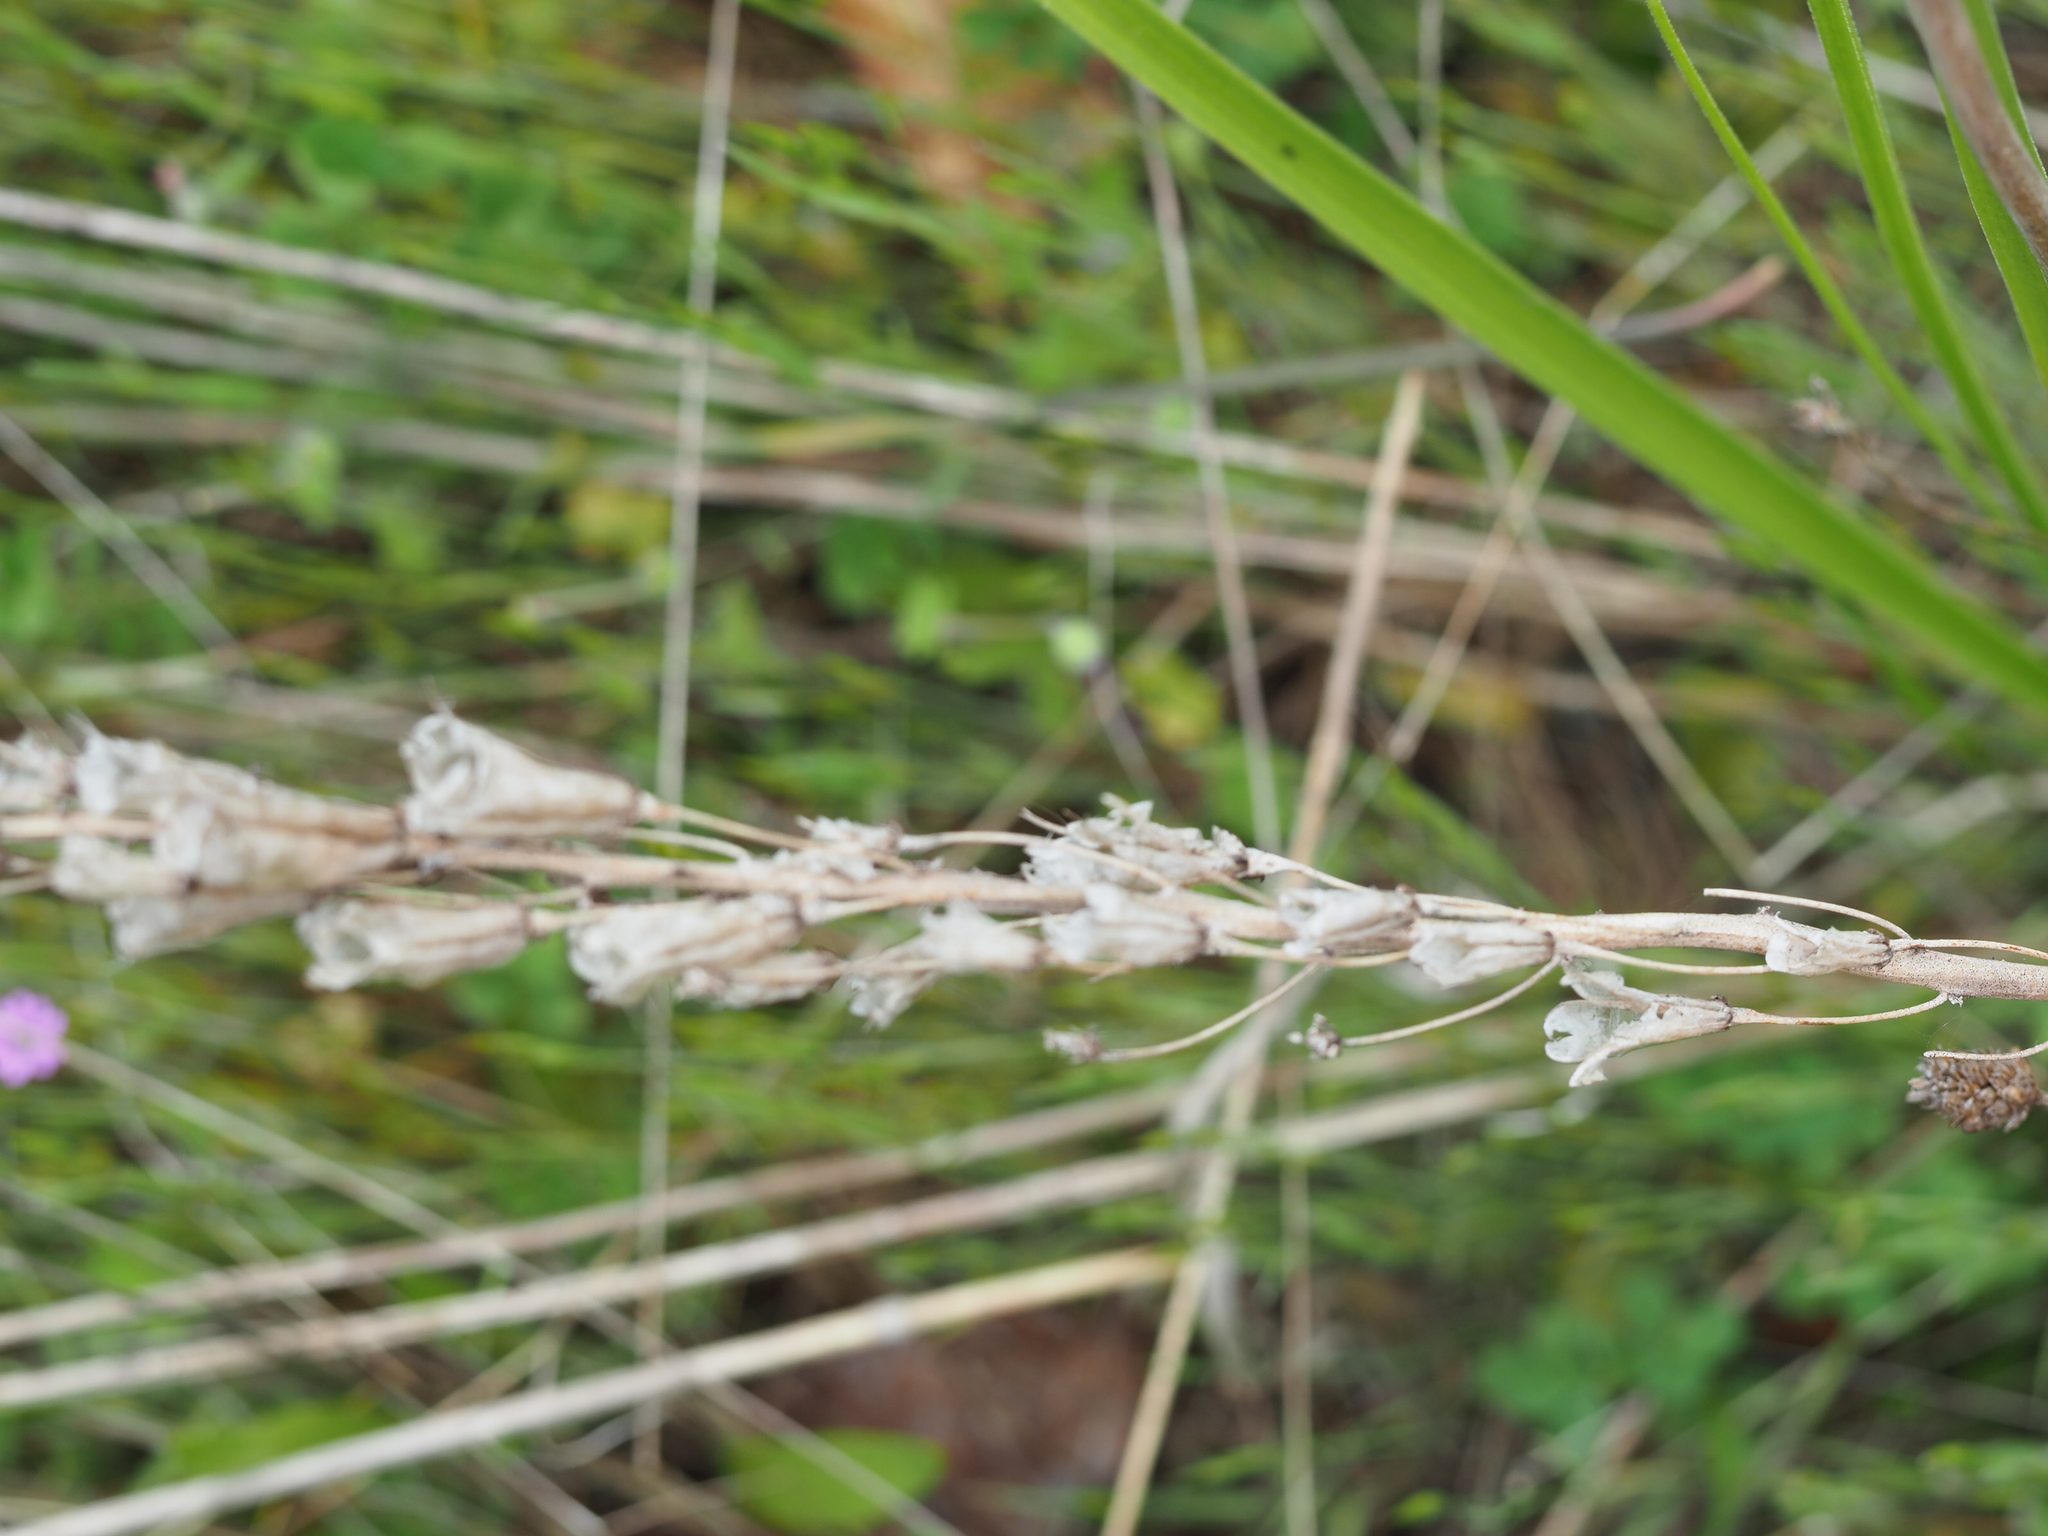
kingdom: Plantae
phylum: Tracheophyta
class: Liliopsida
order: Liliales
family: Melanthiaceae
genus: Toxicoscordion
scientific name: Toxicoscordion venenosum
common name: Meadow death camas
